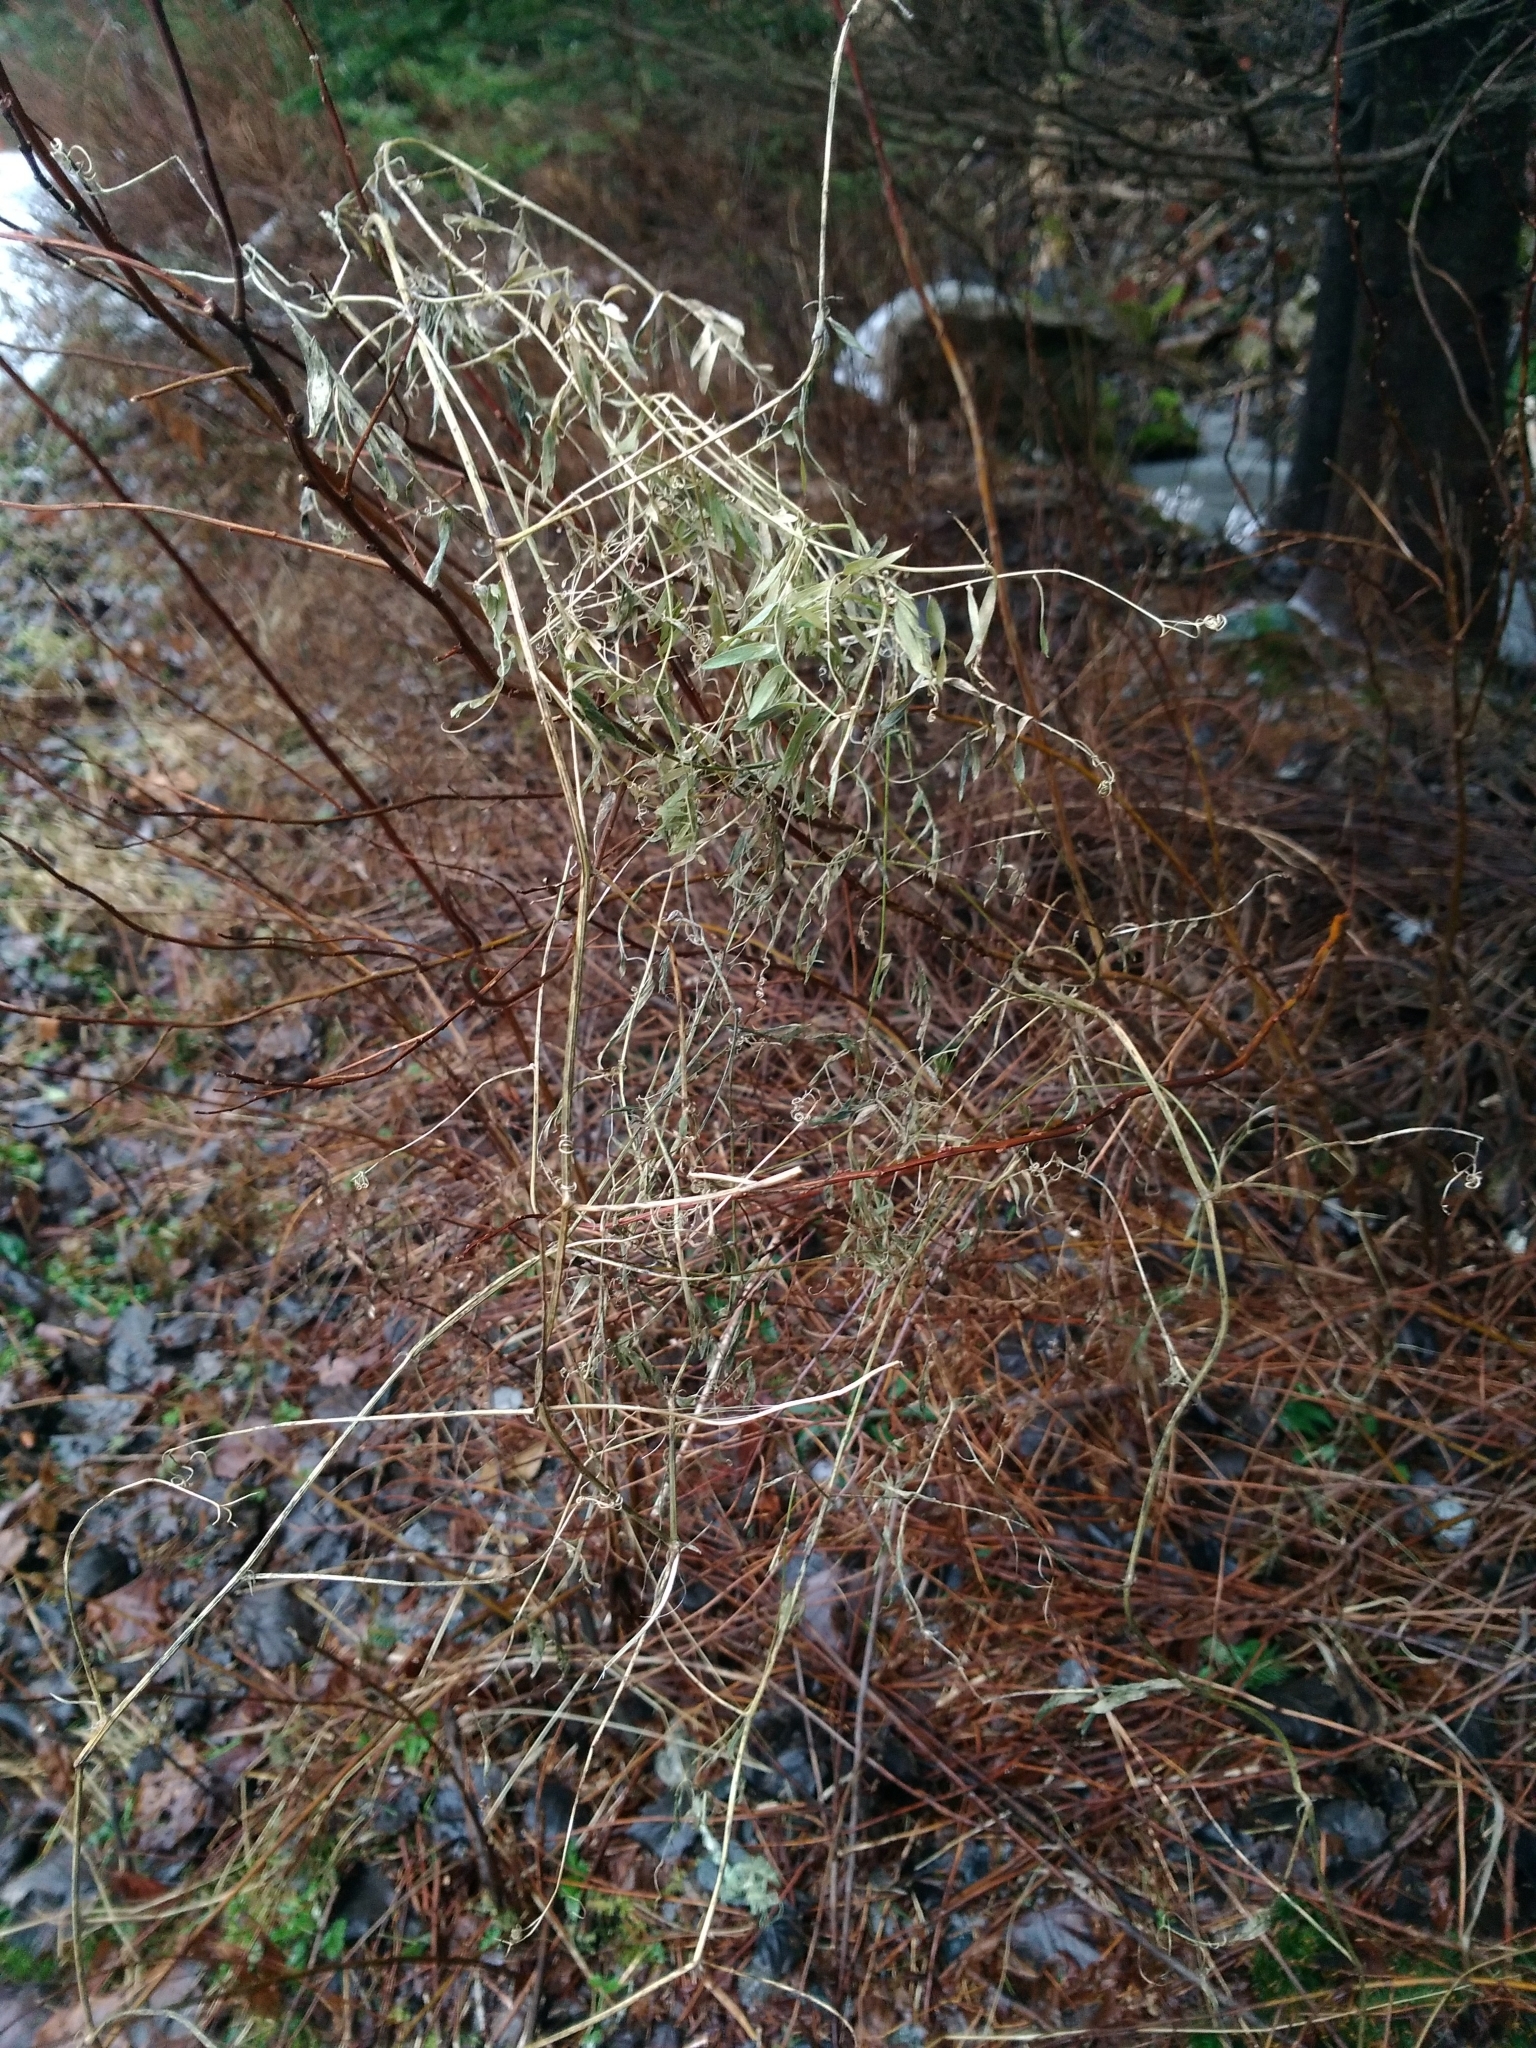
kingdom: Plantae
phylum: Tracheophyta
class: Magnoliopsida
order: Fabales
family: Fabaceae
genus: Vicia
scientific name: Vicia cracca
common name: Bird vetch
